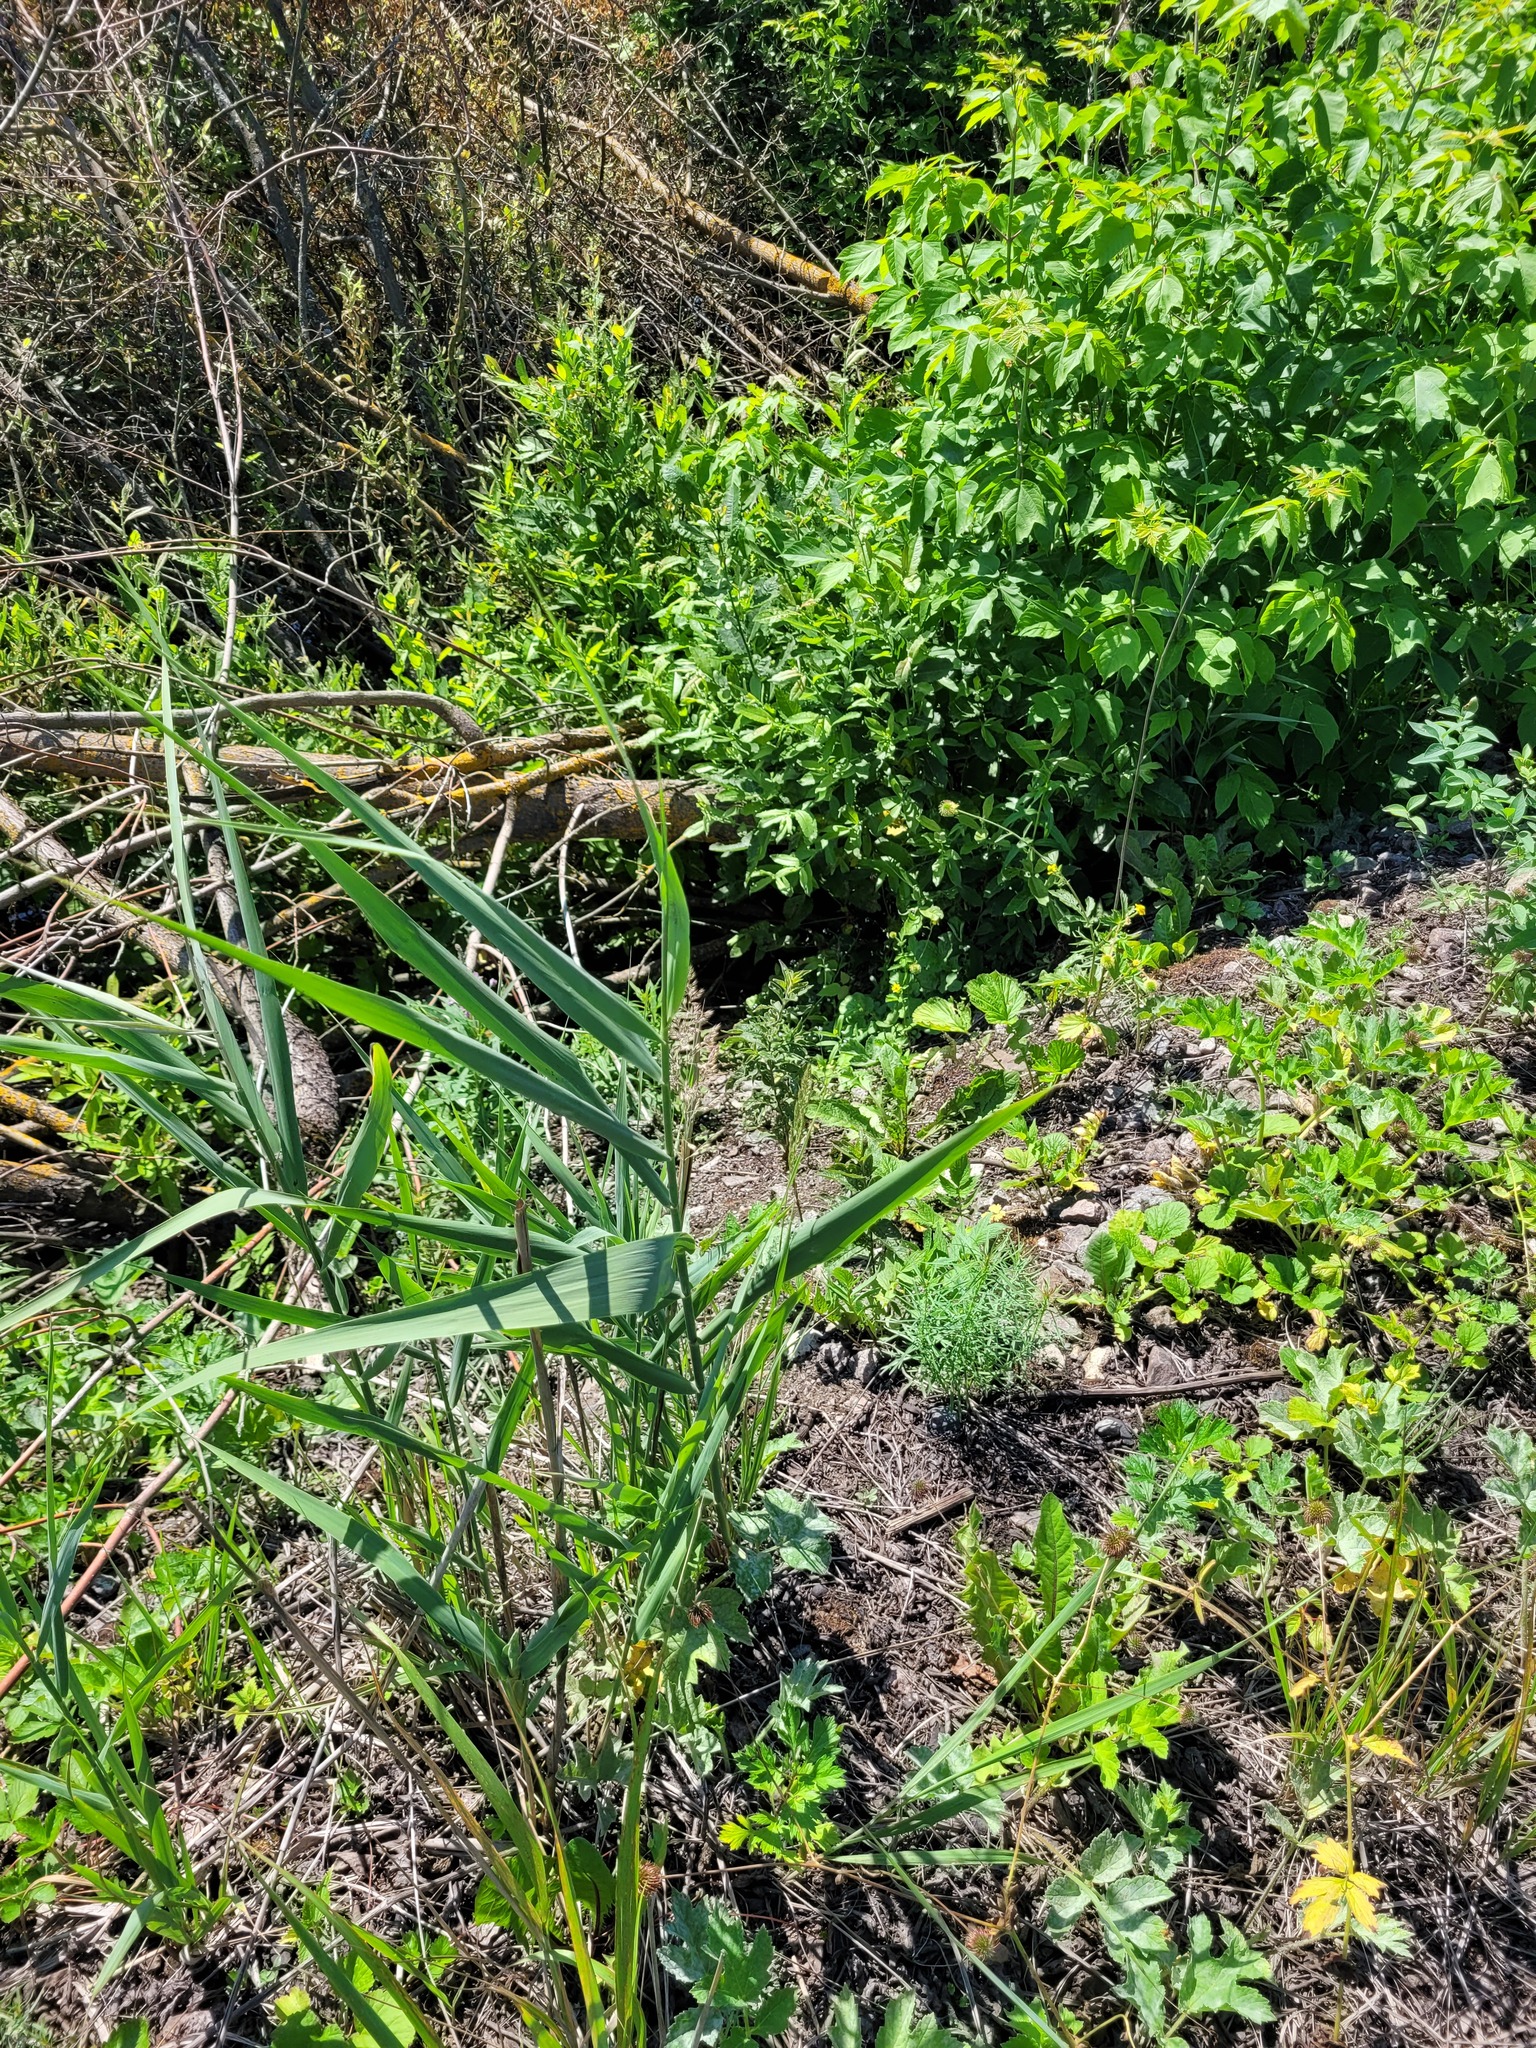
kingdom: Plantae
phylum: Tracheophyta
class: Liliopsida
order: Poales
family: Poaceae
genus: Phragmites
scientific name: Phragmites australis
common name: Common reed
